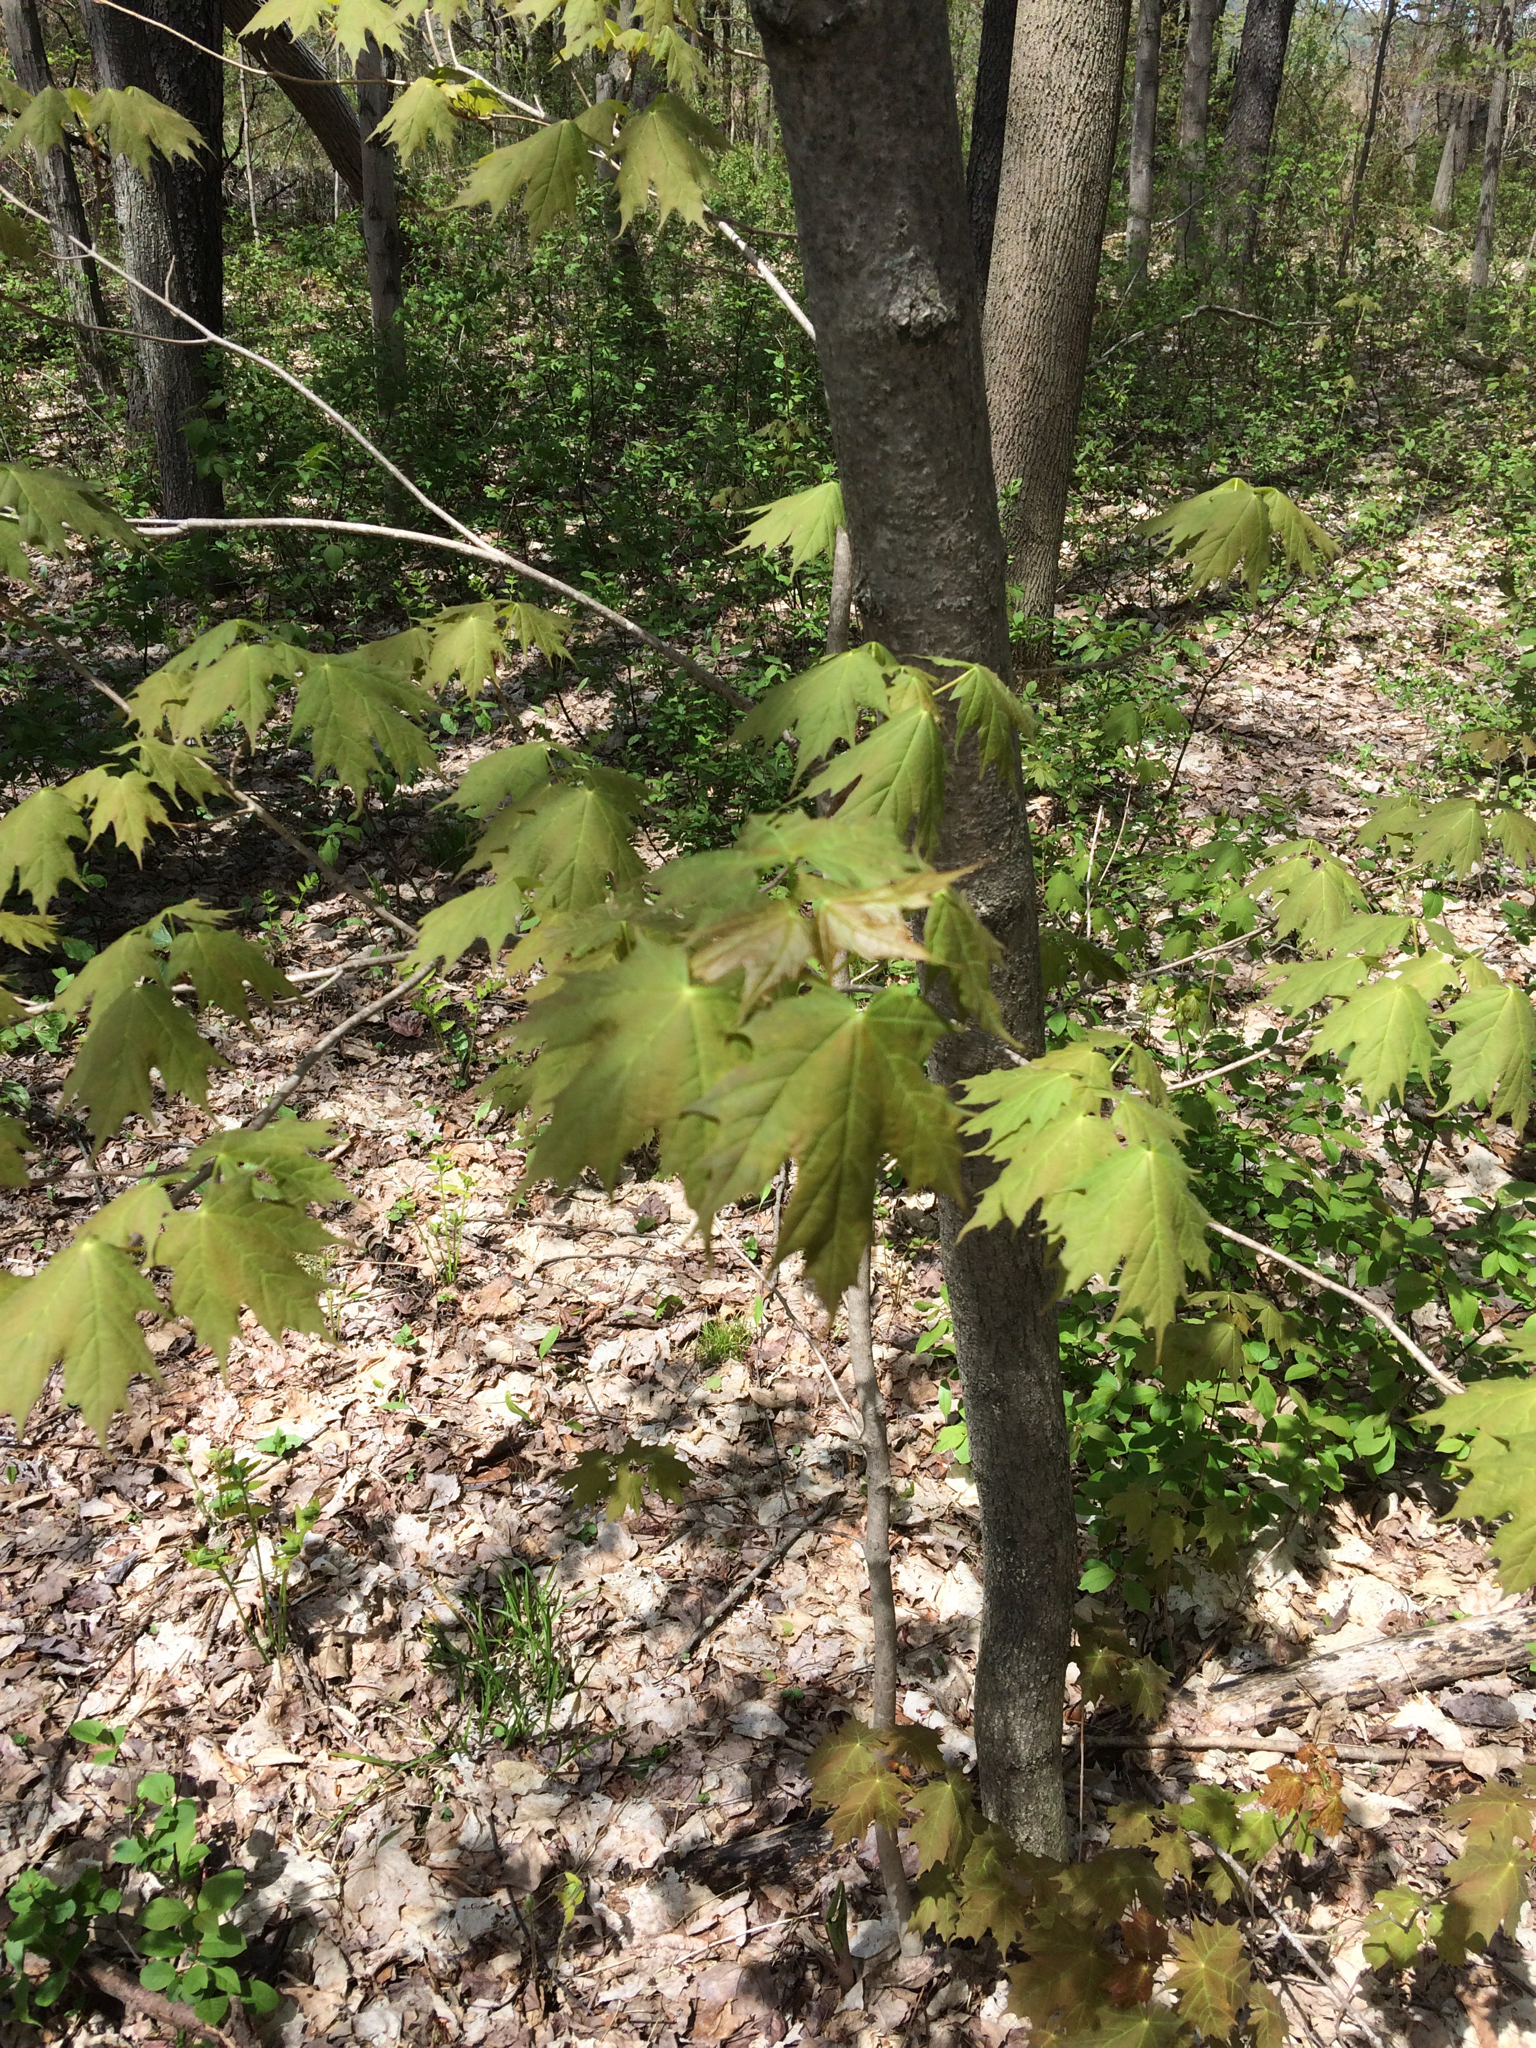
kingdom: Plantae
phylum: Tracheophyta
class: Magnoliopsida
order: Sapindales
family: Sapindaceae
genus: Acer
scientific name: Acer saccharum
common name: Sugar maple
